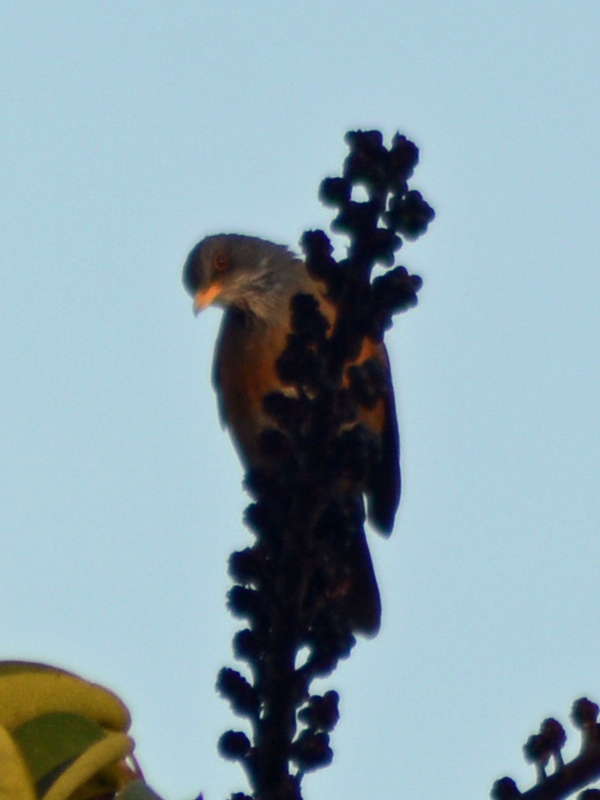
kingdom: Animalia
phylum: Chordata
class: Aves
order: Passeriformes
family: Turdidae
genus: Turdus
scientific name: Turdus rufopalliatus
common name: Rufous-backed robin
